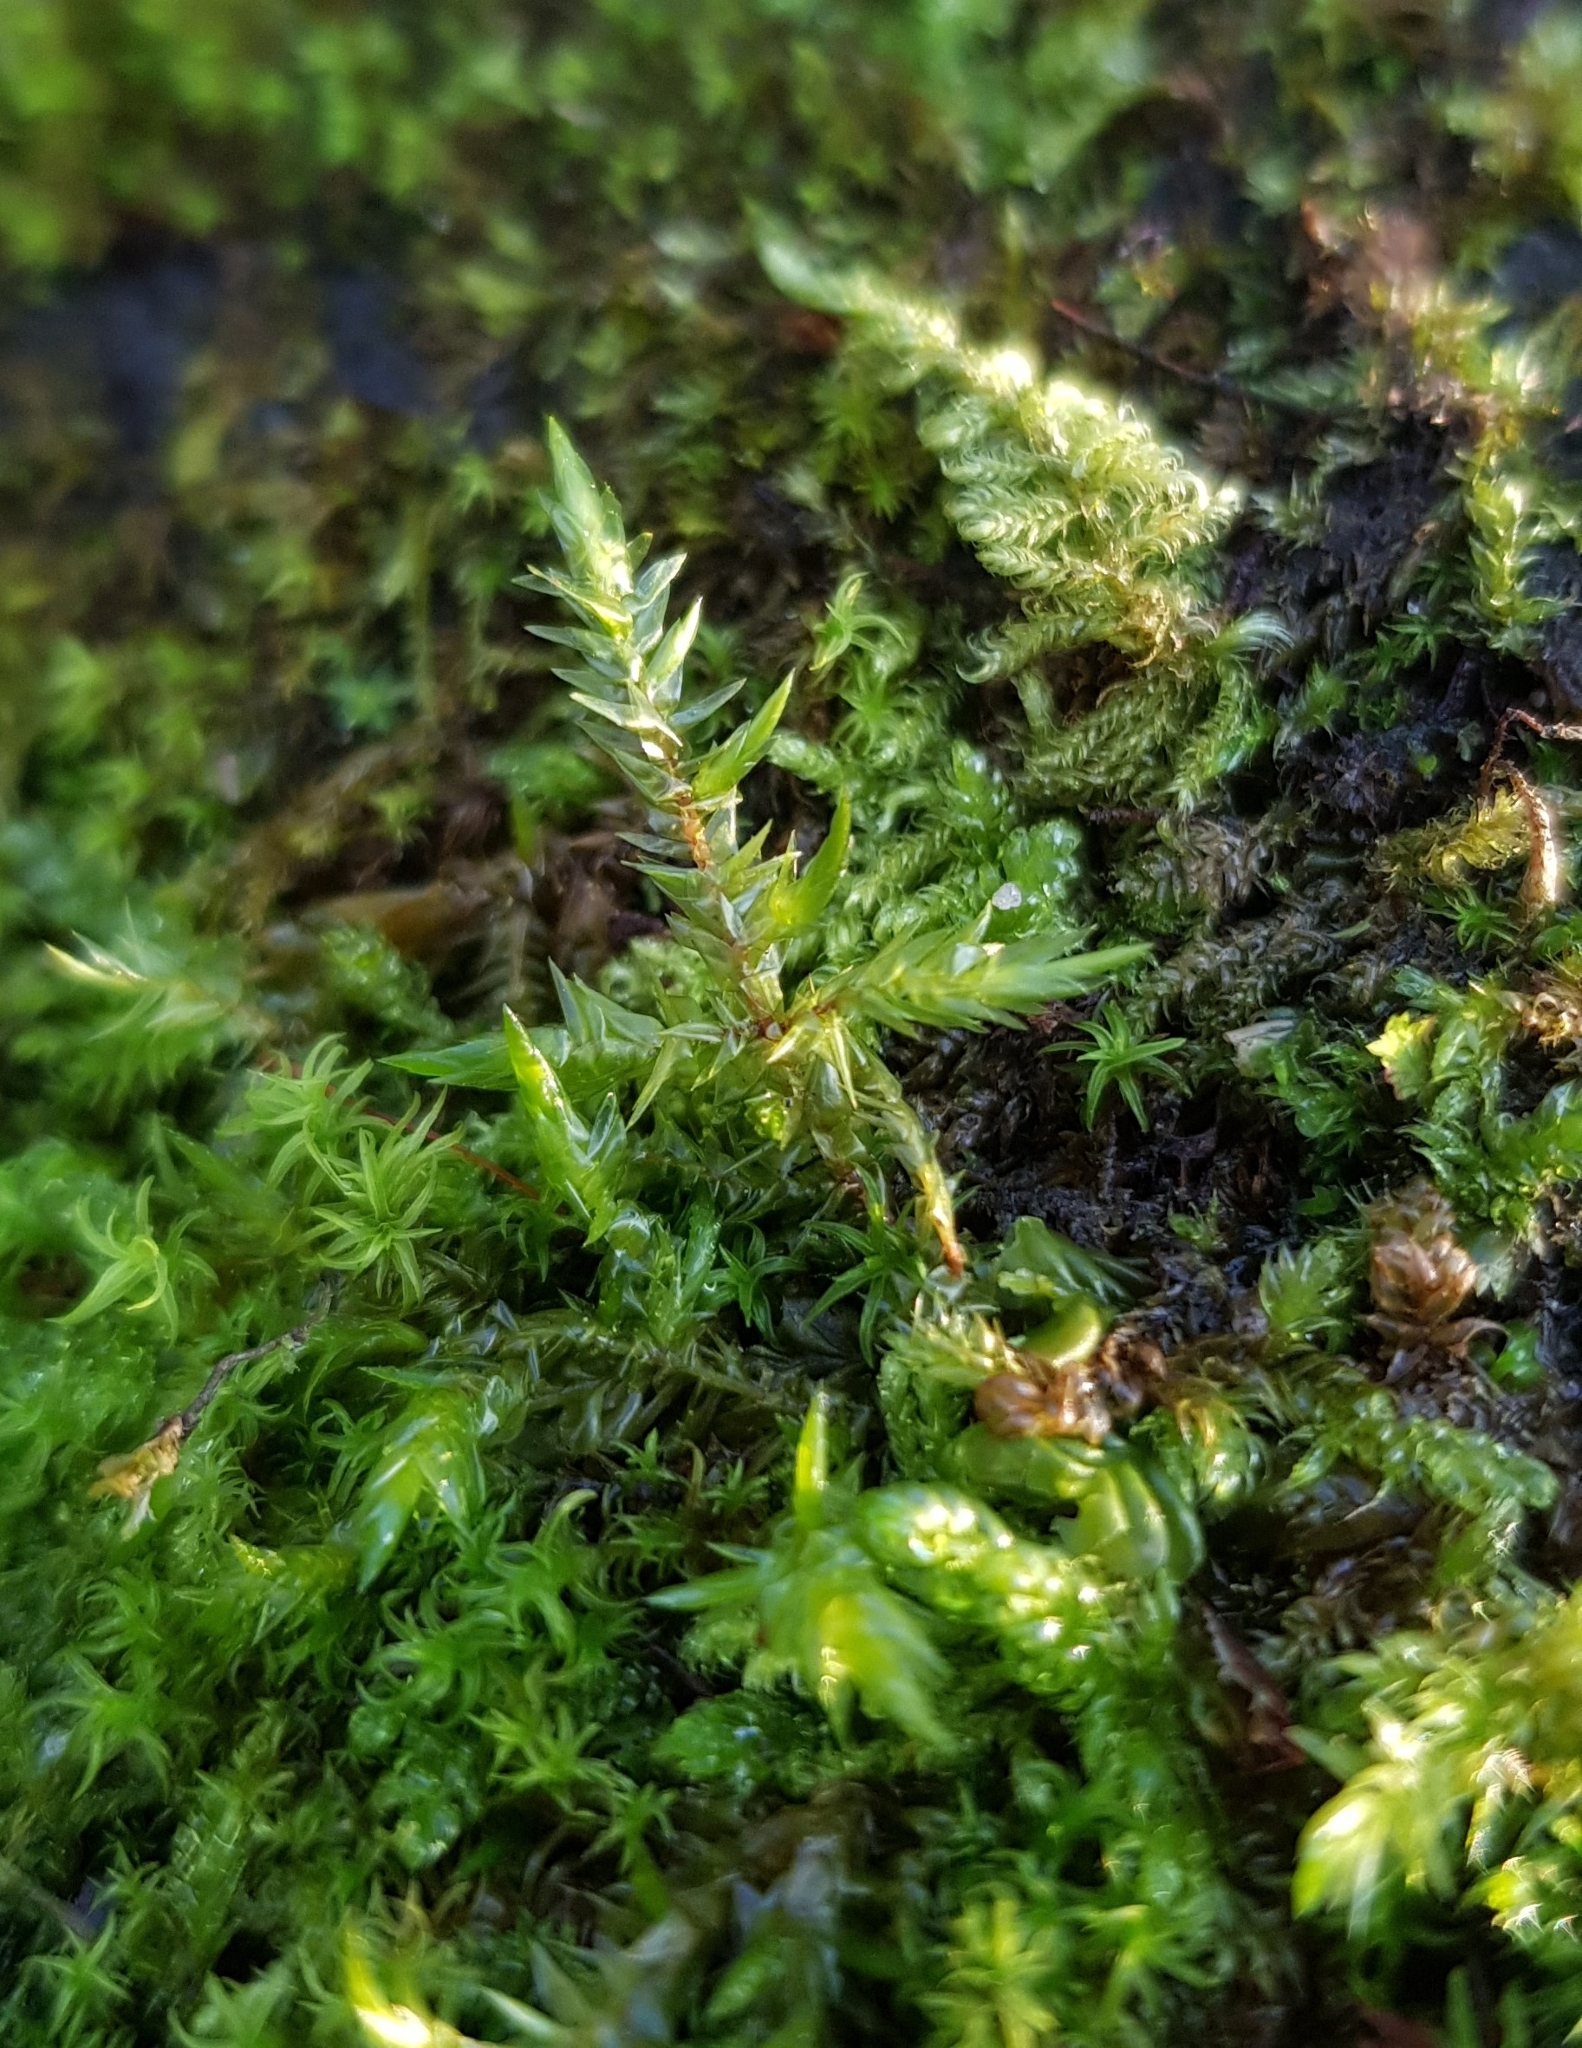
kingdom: Plantae
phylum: Bryophyta
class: Bryopsida
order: Hypnales
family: Pylaisiaceae
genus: Calliergonella
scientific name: Calliergonella cuspidata
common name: Common large wetland moss
